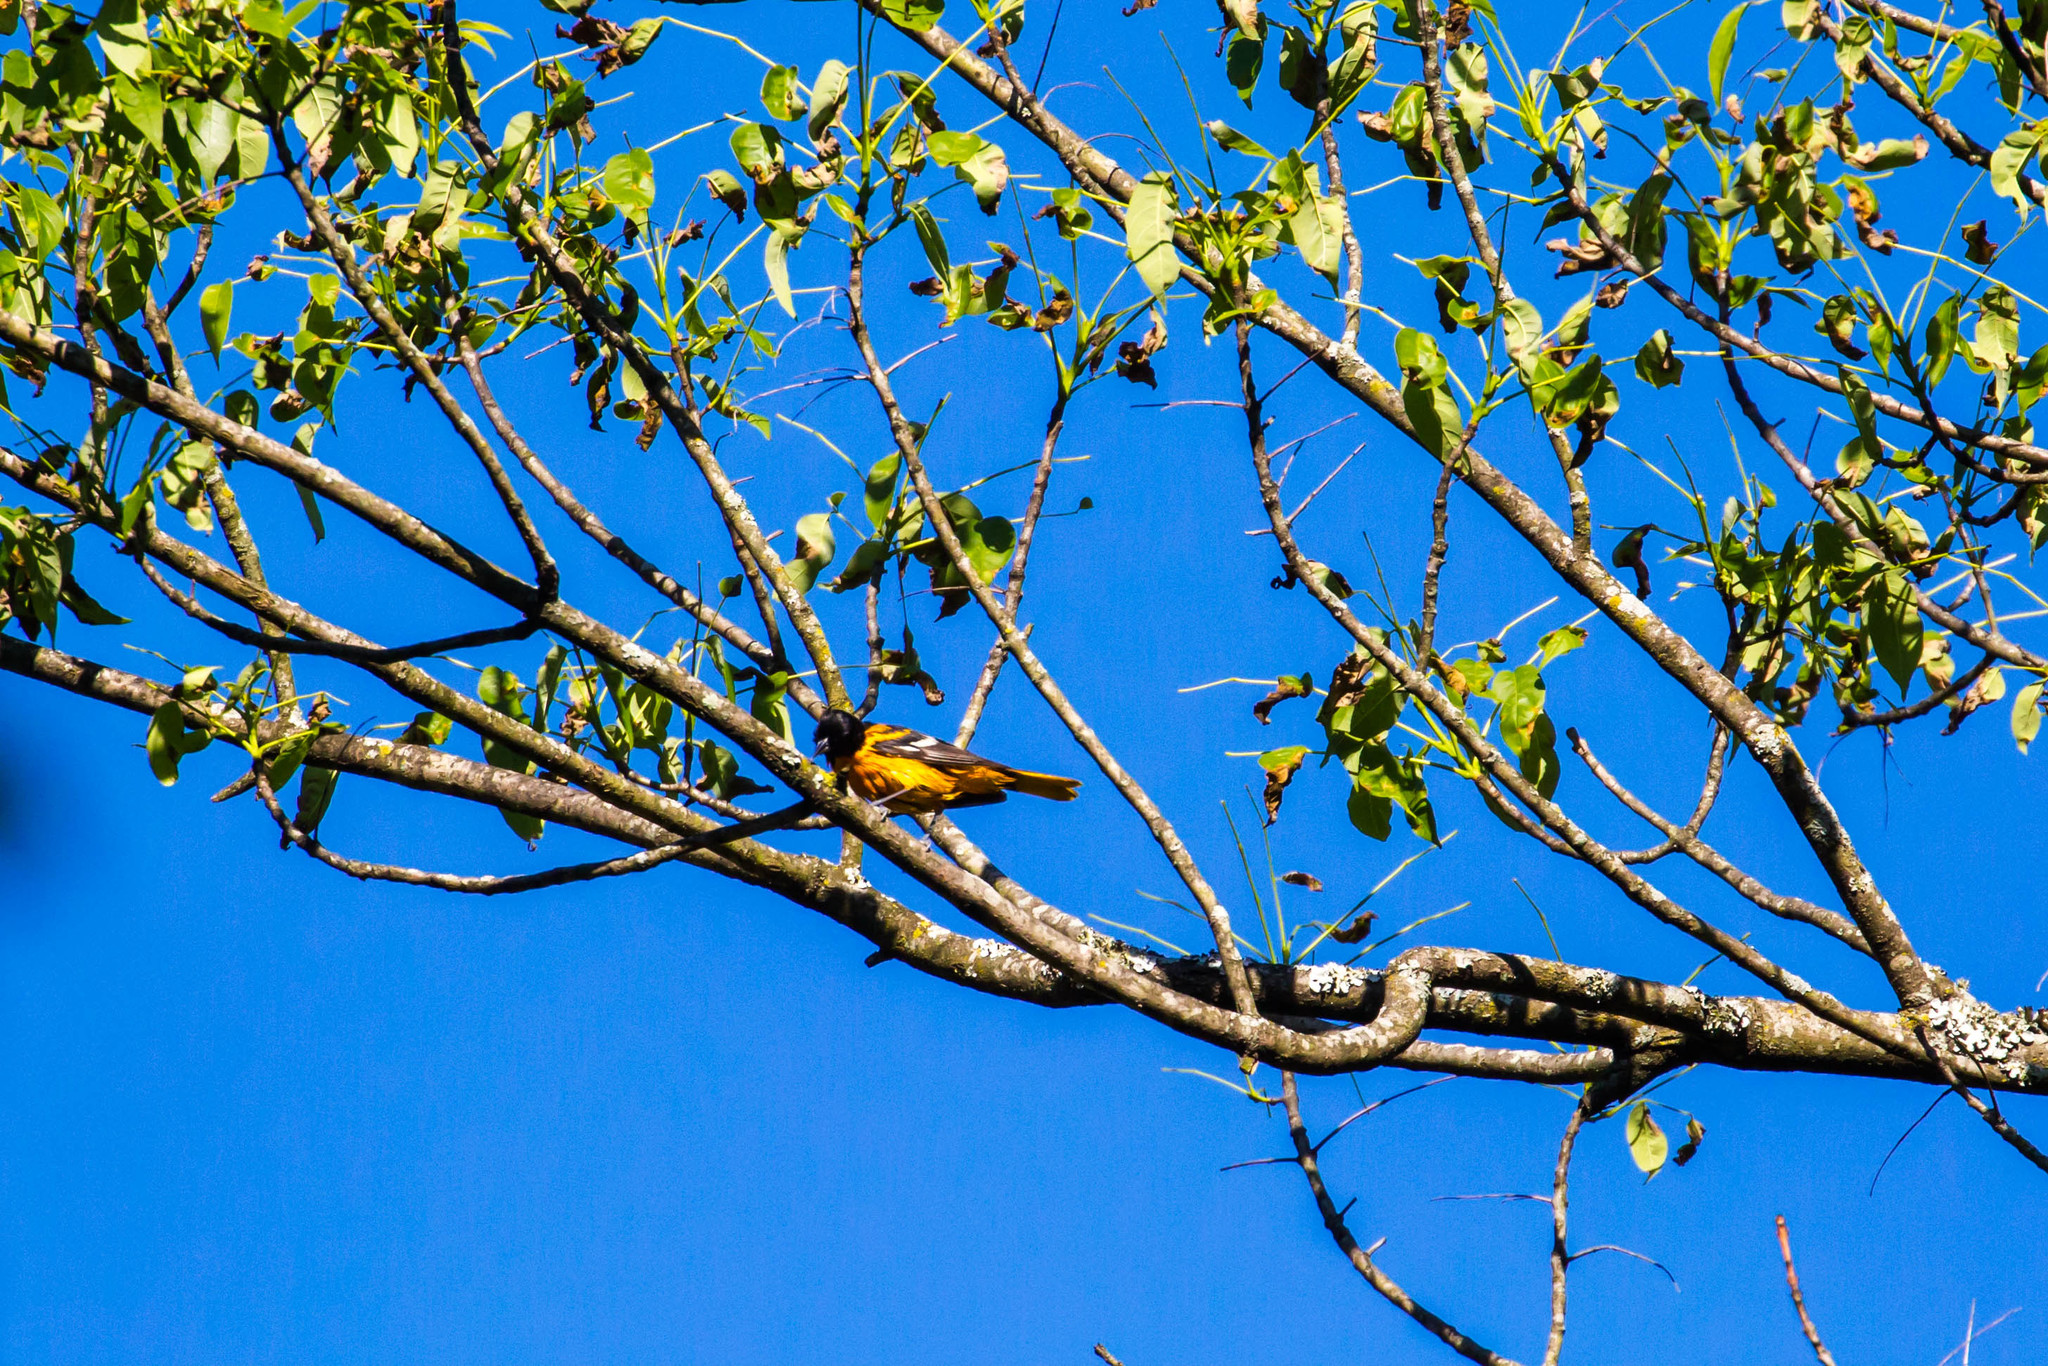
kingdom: Animalia
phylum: Chordata
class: Aves
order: Passeriformes
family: Icteridae
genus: Icterus
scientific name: Icterus galbula
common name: Baltimore oriole
